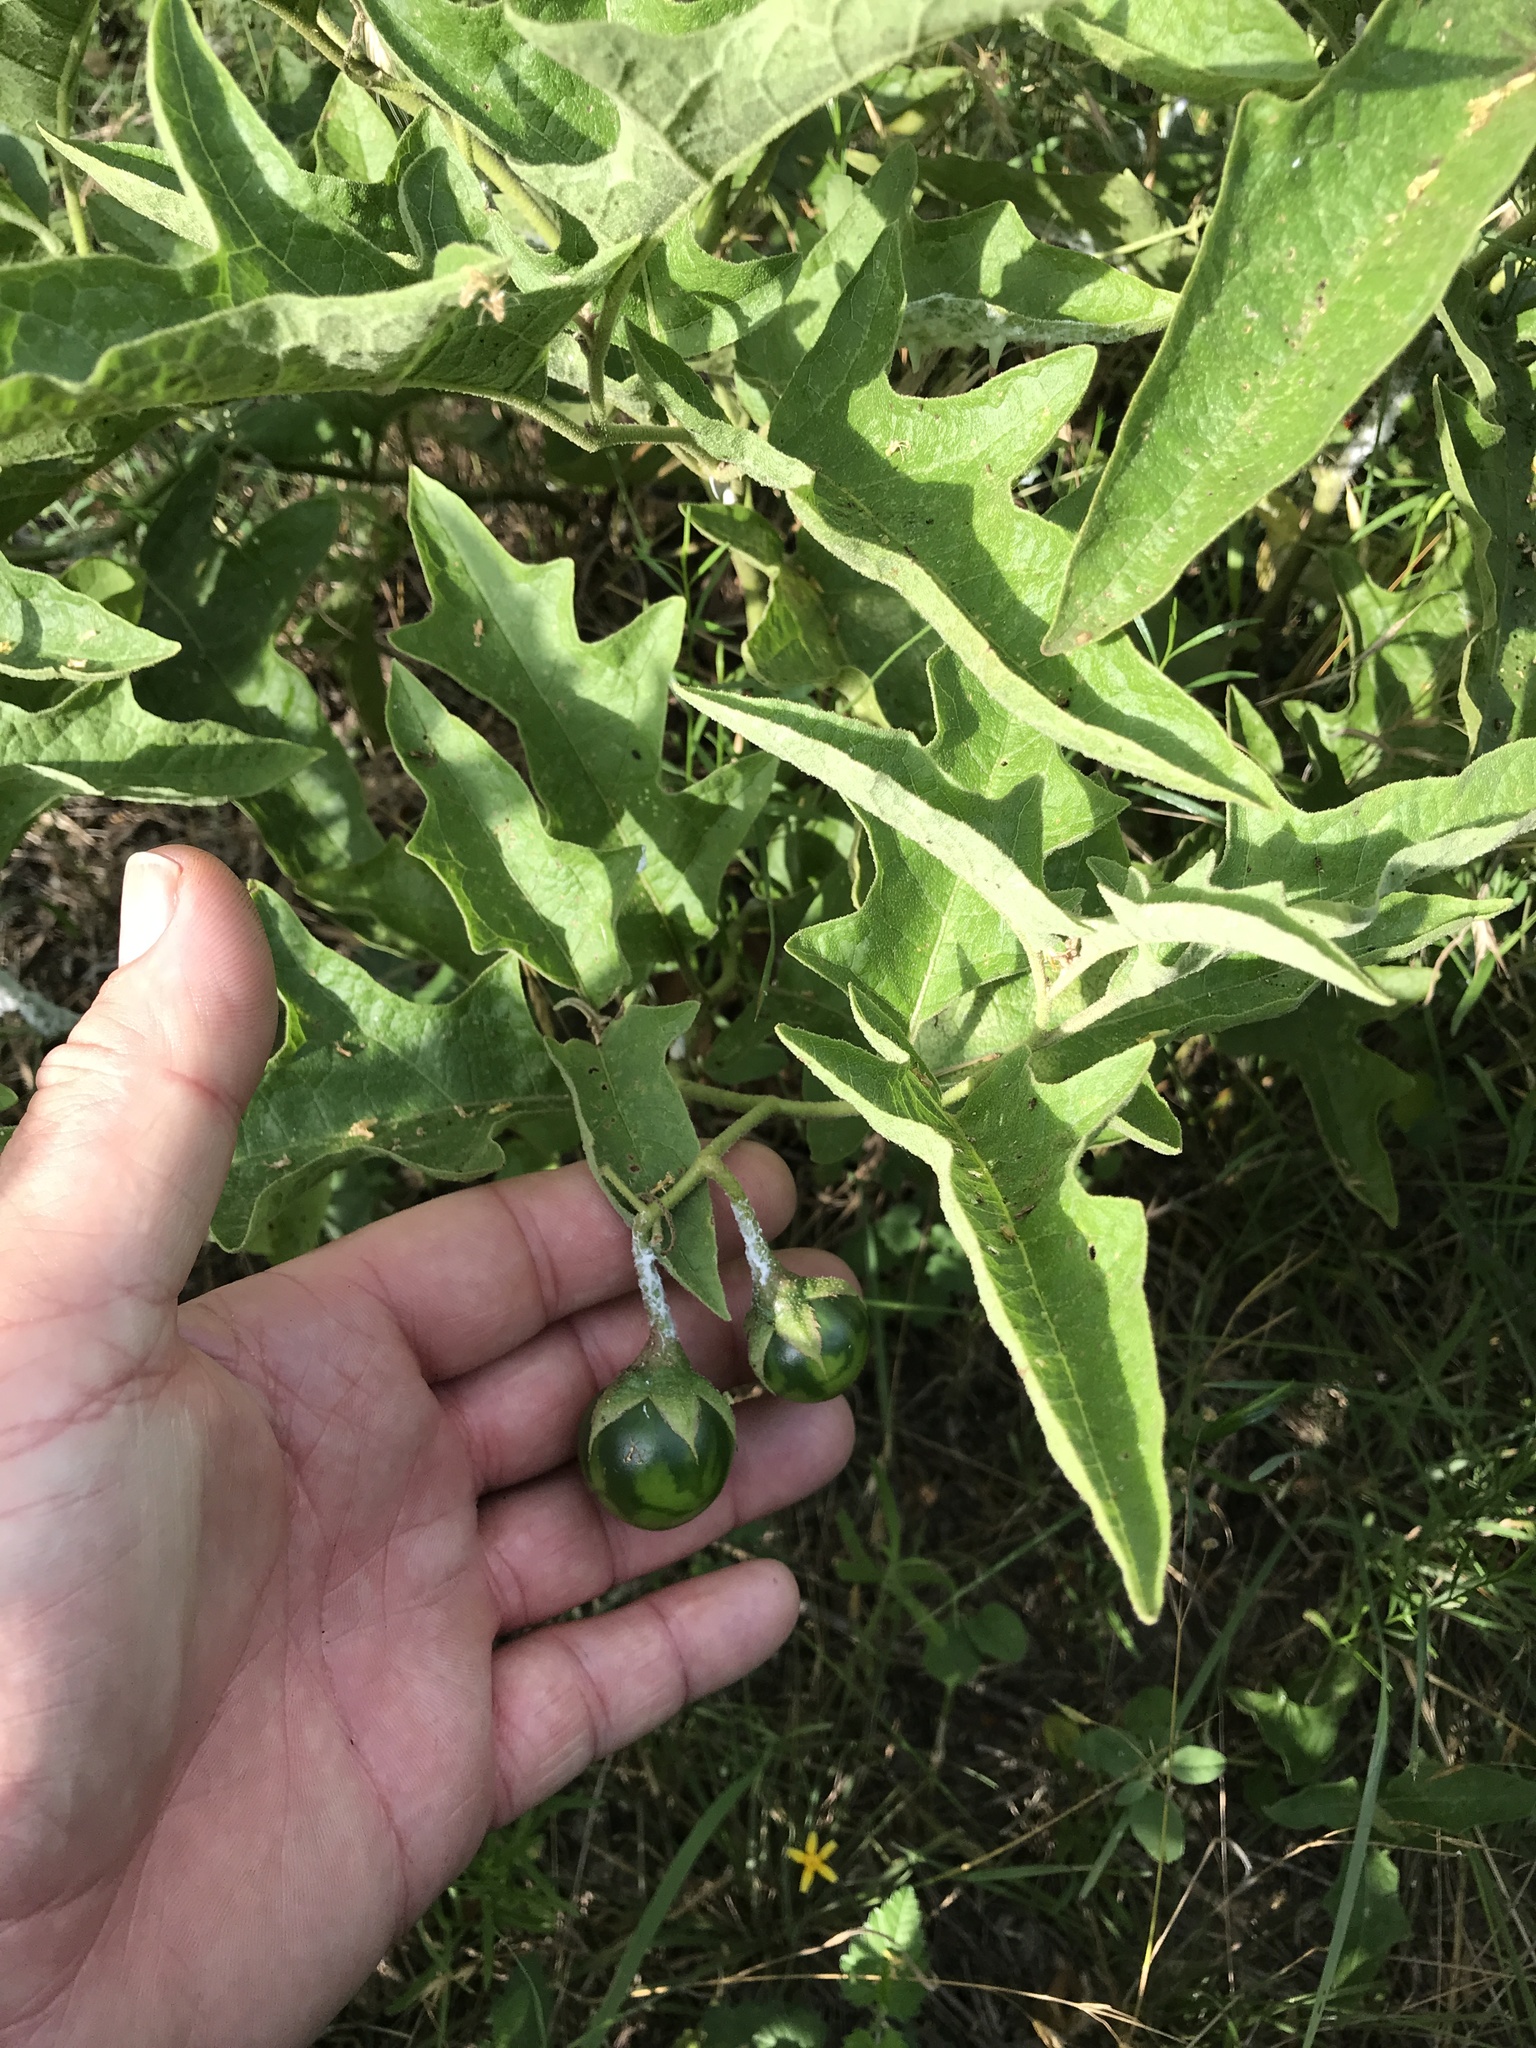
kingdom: Plantae
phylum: Tracheophyta
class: Magnoliopsida
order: Solanales
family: Solanaceae
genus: Solanum
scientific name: Solanum dimidiatum
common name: Carolina horse-nettle
